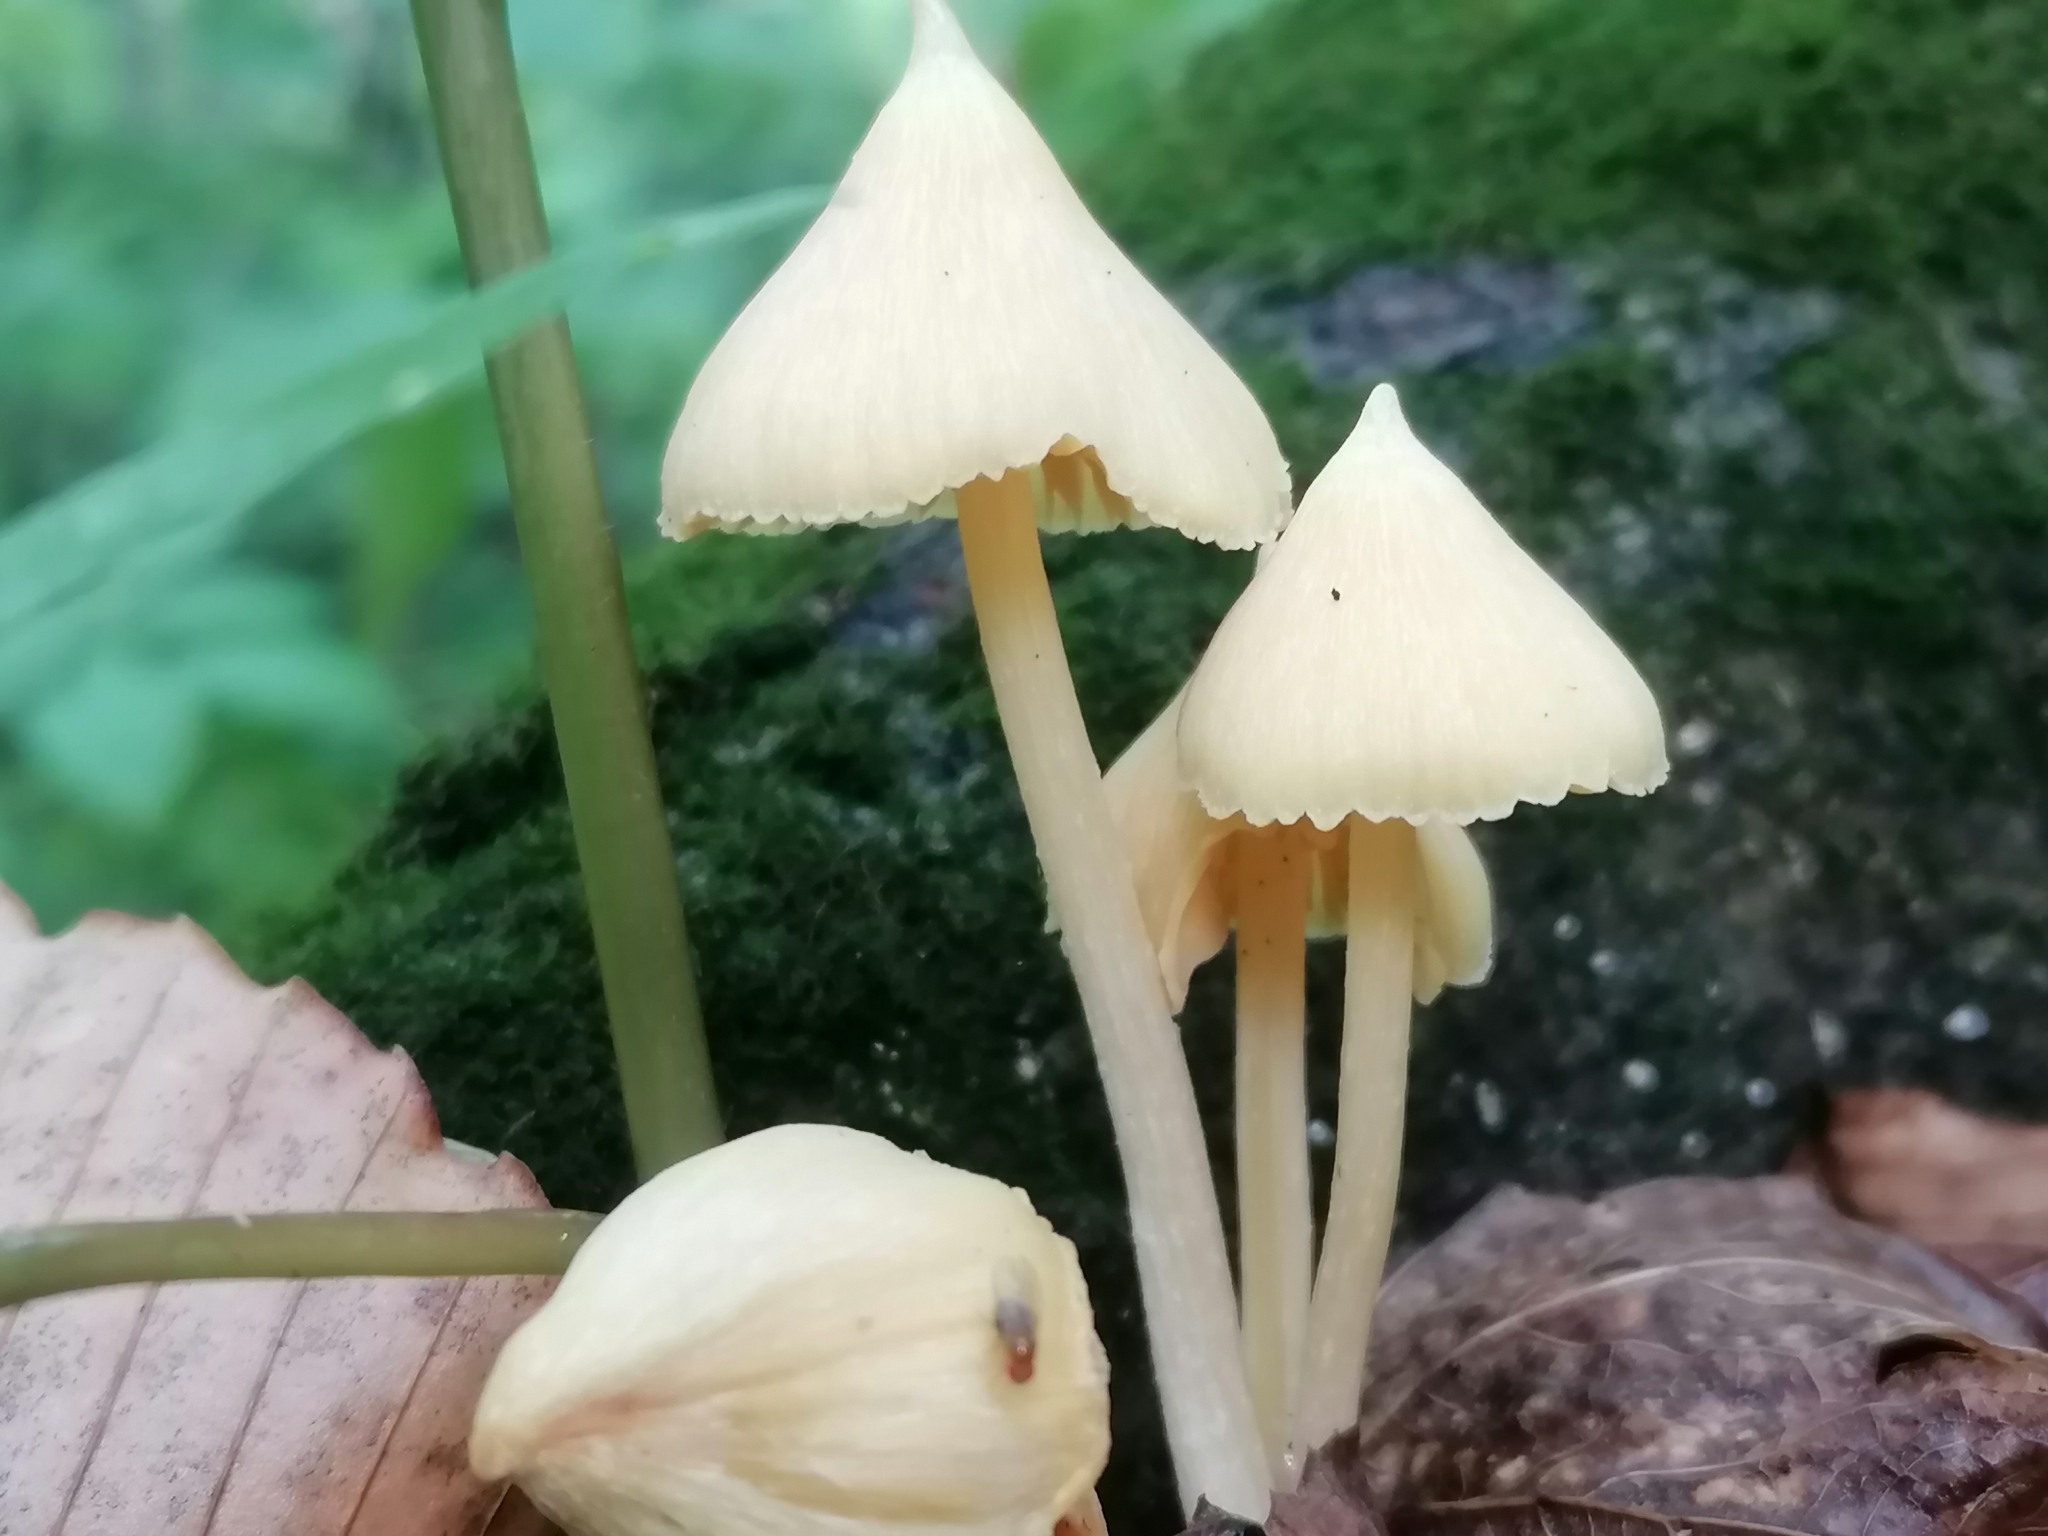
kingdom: Fungi
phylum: Basidiomycota
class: Agaricomycetes
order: Agaricales
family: Entolomataceae
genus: Entoloma
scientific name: Entoloma murrayi
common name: Yellow unicorn entoloma
